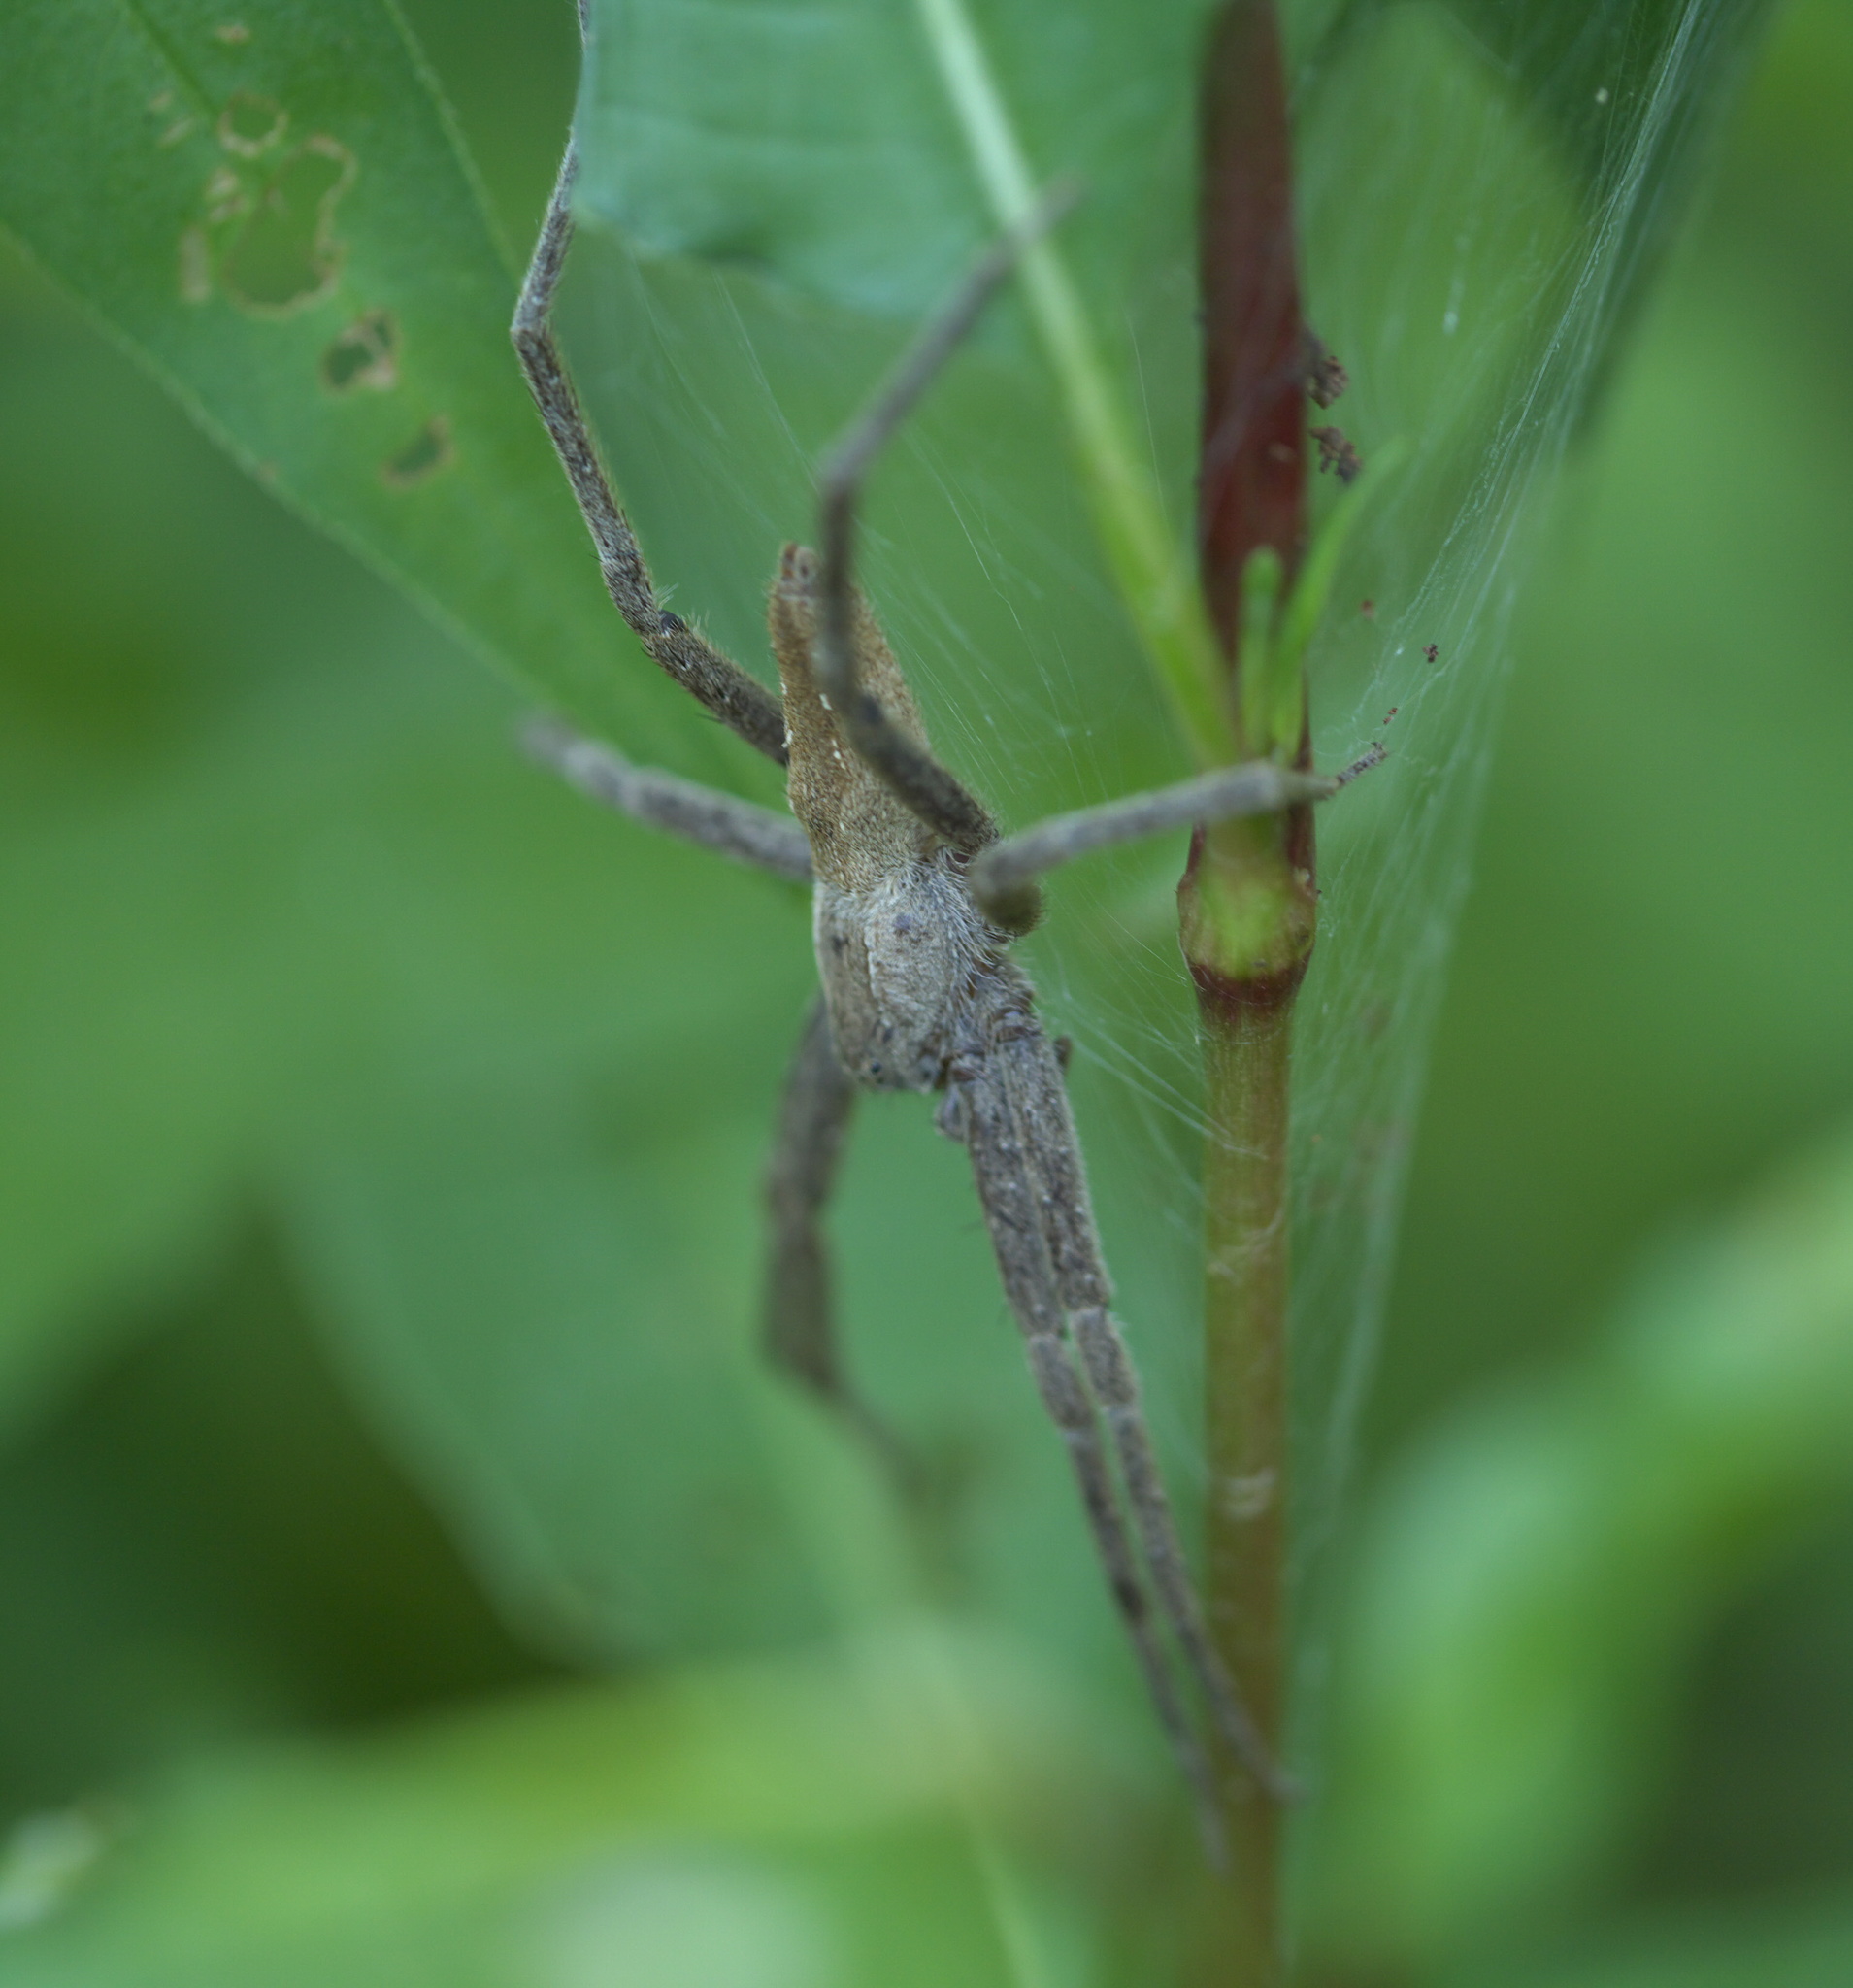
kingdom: Animalia
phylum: Arthropoda
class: Arachnida
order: Araneae
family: Pisauridae
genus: Pisaurina
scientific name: Pisaurina mira
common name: American nursery web spider
